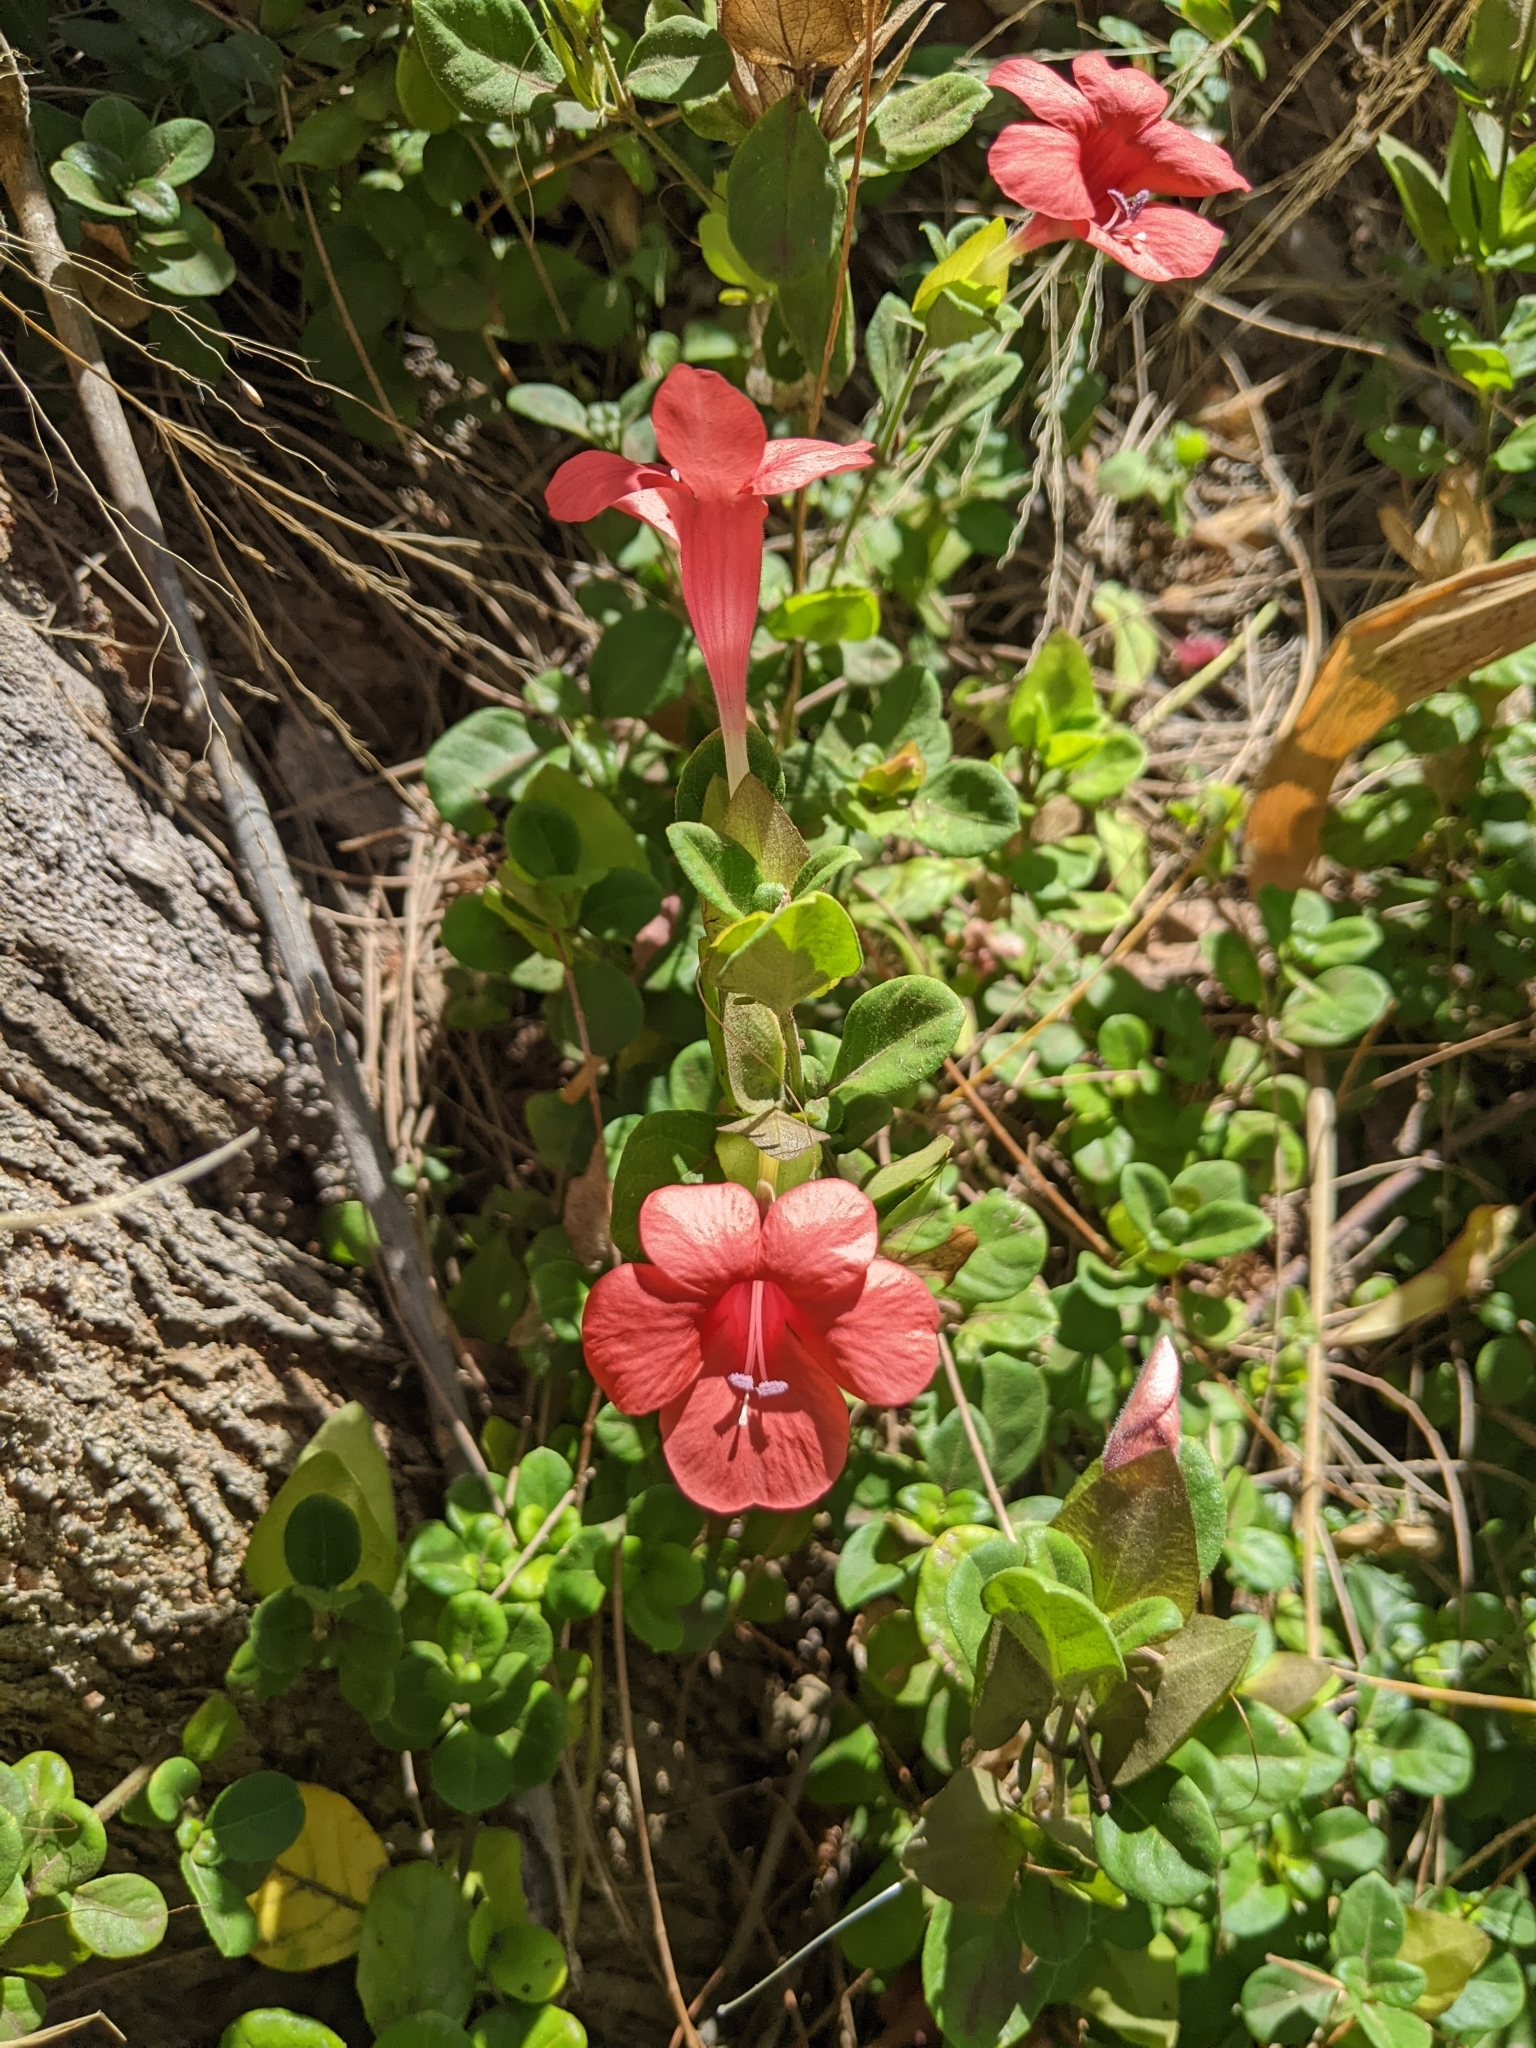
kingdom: Plantae
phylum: Tracheophyta
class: Magnoliopsida
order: Lamiales
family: Acanthaceae
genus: Barleria
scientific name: Barleria repens
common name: Pink-ruellia
